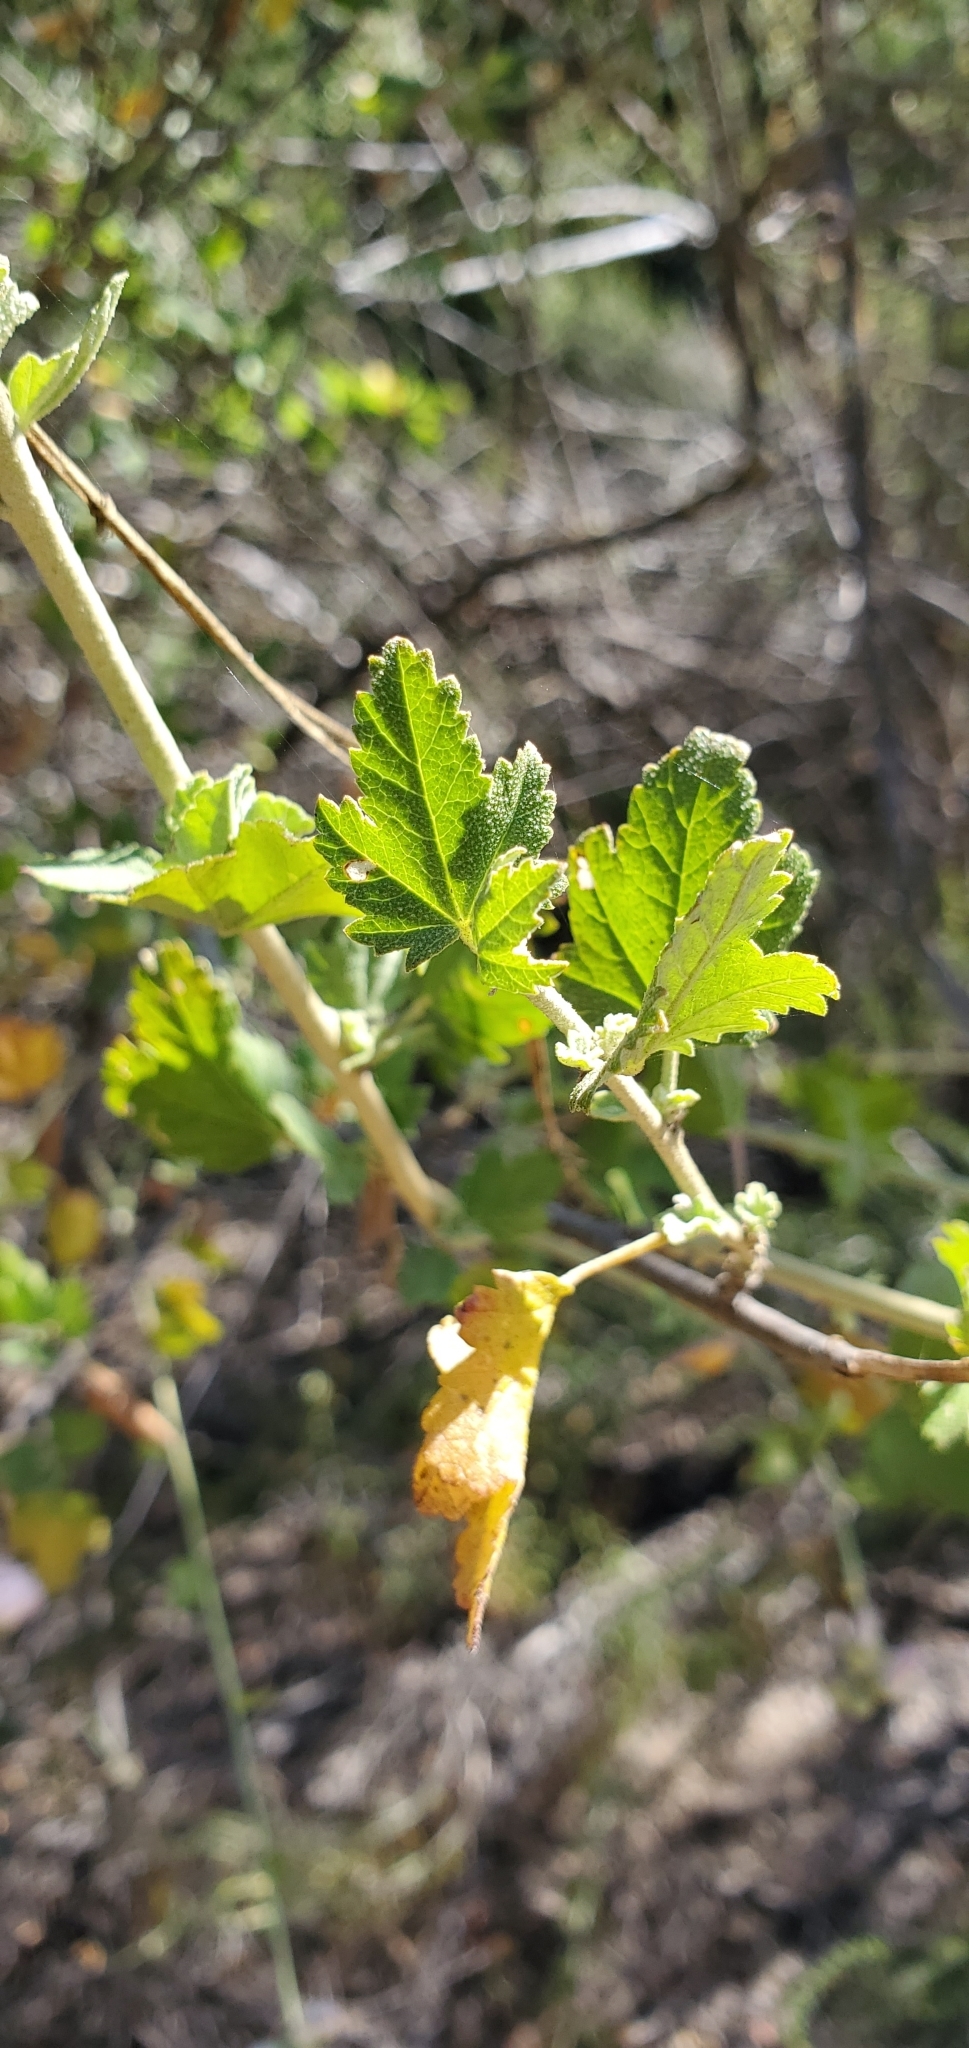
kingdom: Plantae
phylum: Tracheophyta
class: Magnoliopsida
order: Malvales
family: Malvaceae
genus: Malacothamnus
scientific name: Malacothamnus fasciculatus
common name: Sant cruz island bush-mallow
